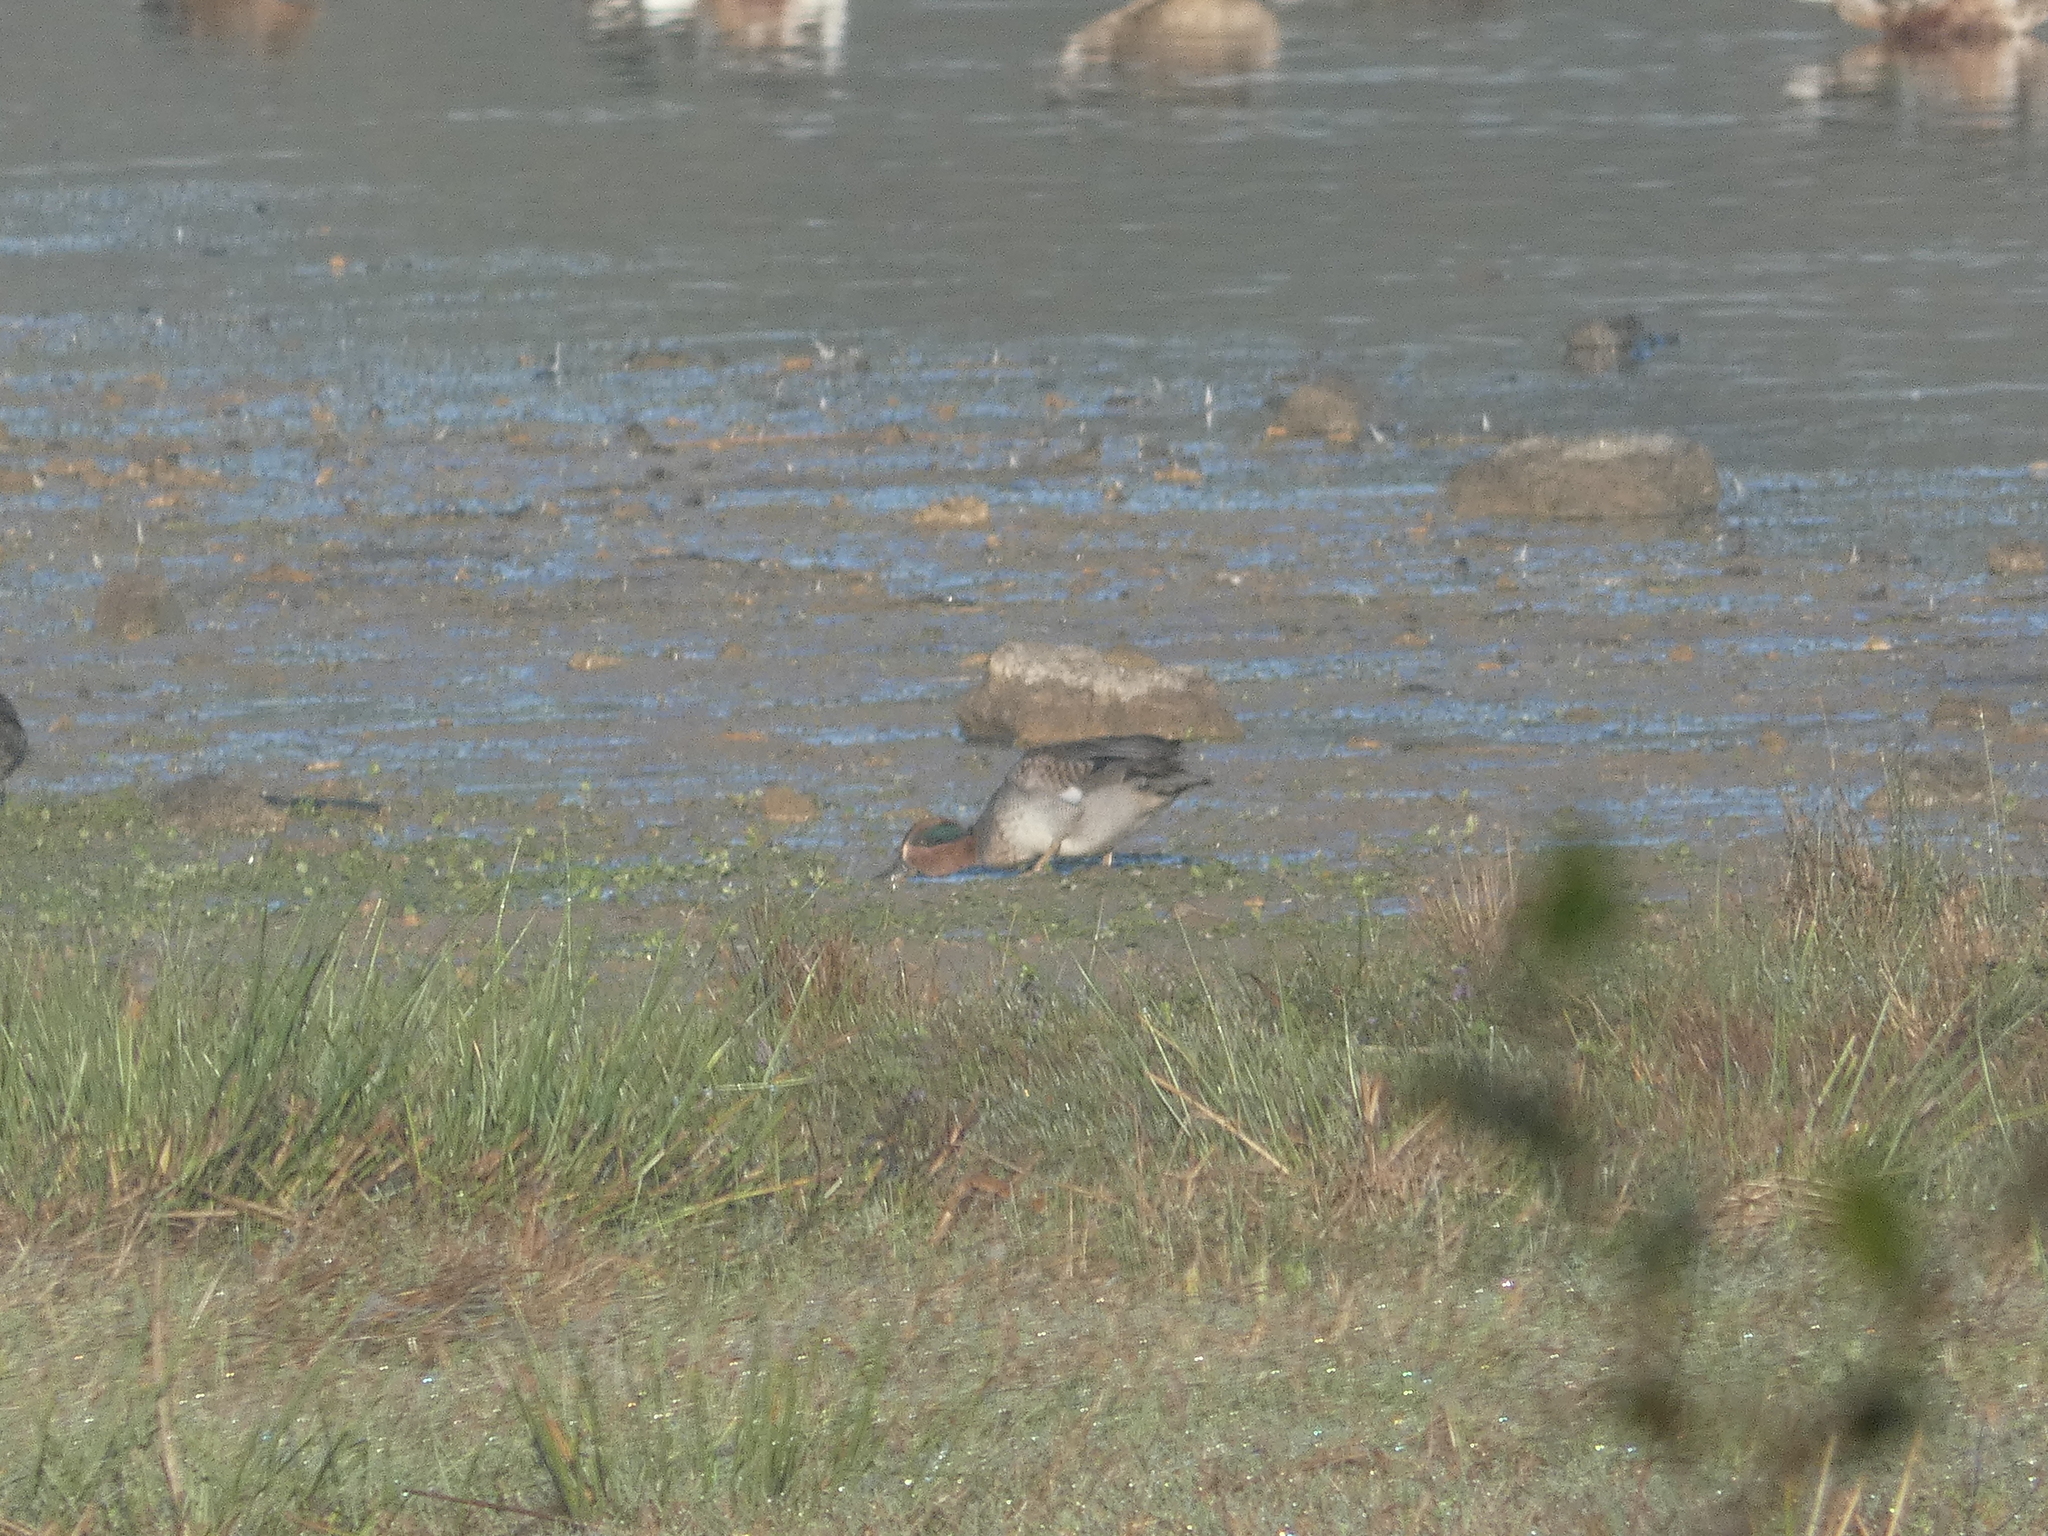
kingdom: Animalia
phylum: Chordata
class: Aves
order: Anseriformes
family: Anatidae
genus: Anas
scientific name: Anas crecca
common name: Eurasian teal
